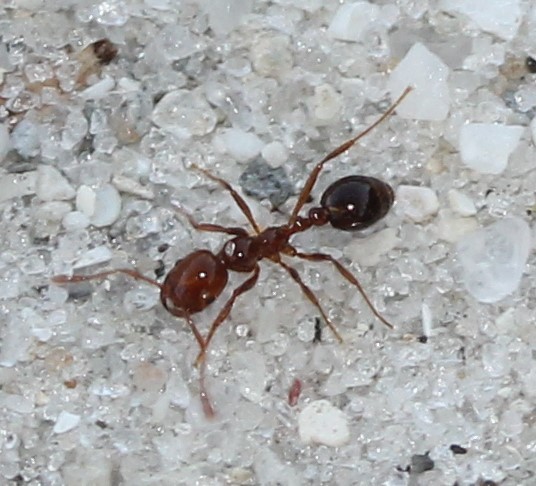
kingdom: Animalia
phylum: Arthropoda
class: Insecta
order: Hymenoptera
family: Formicidae
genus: Solenopsis
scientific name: Solenopsis invicta
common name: Red imported fire ant
